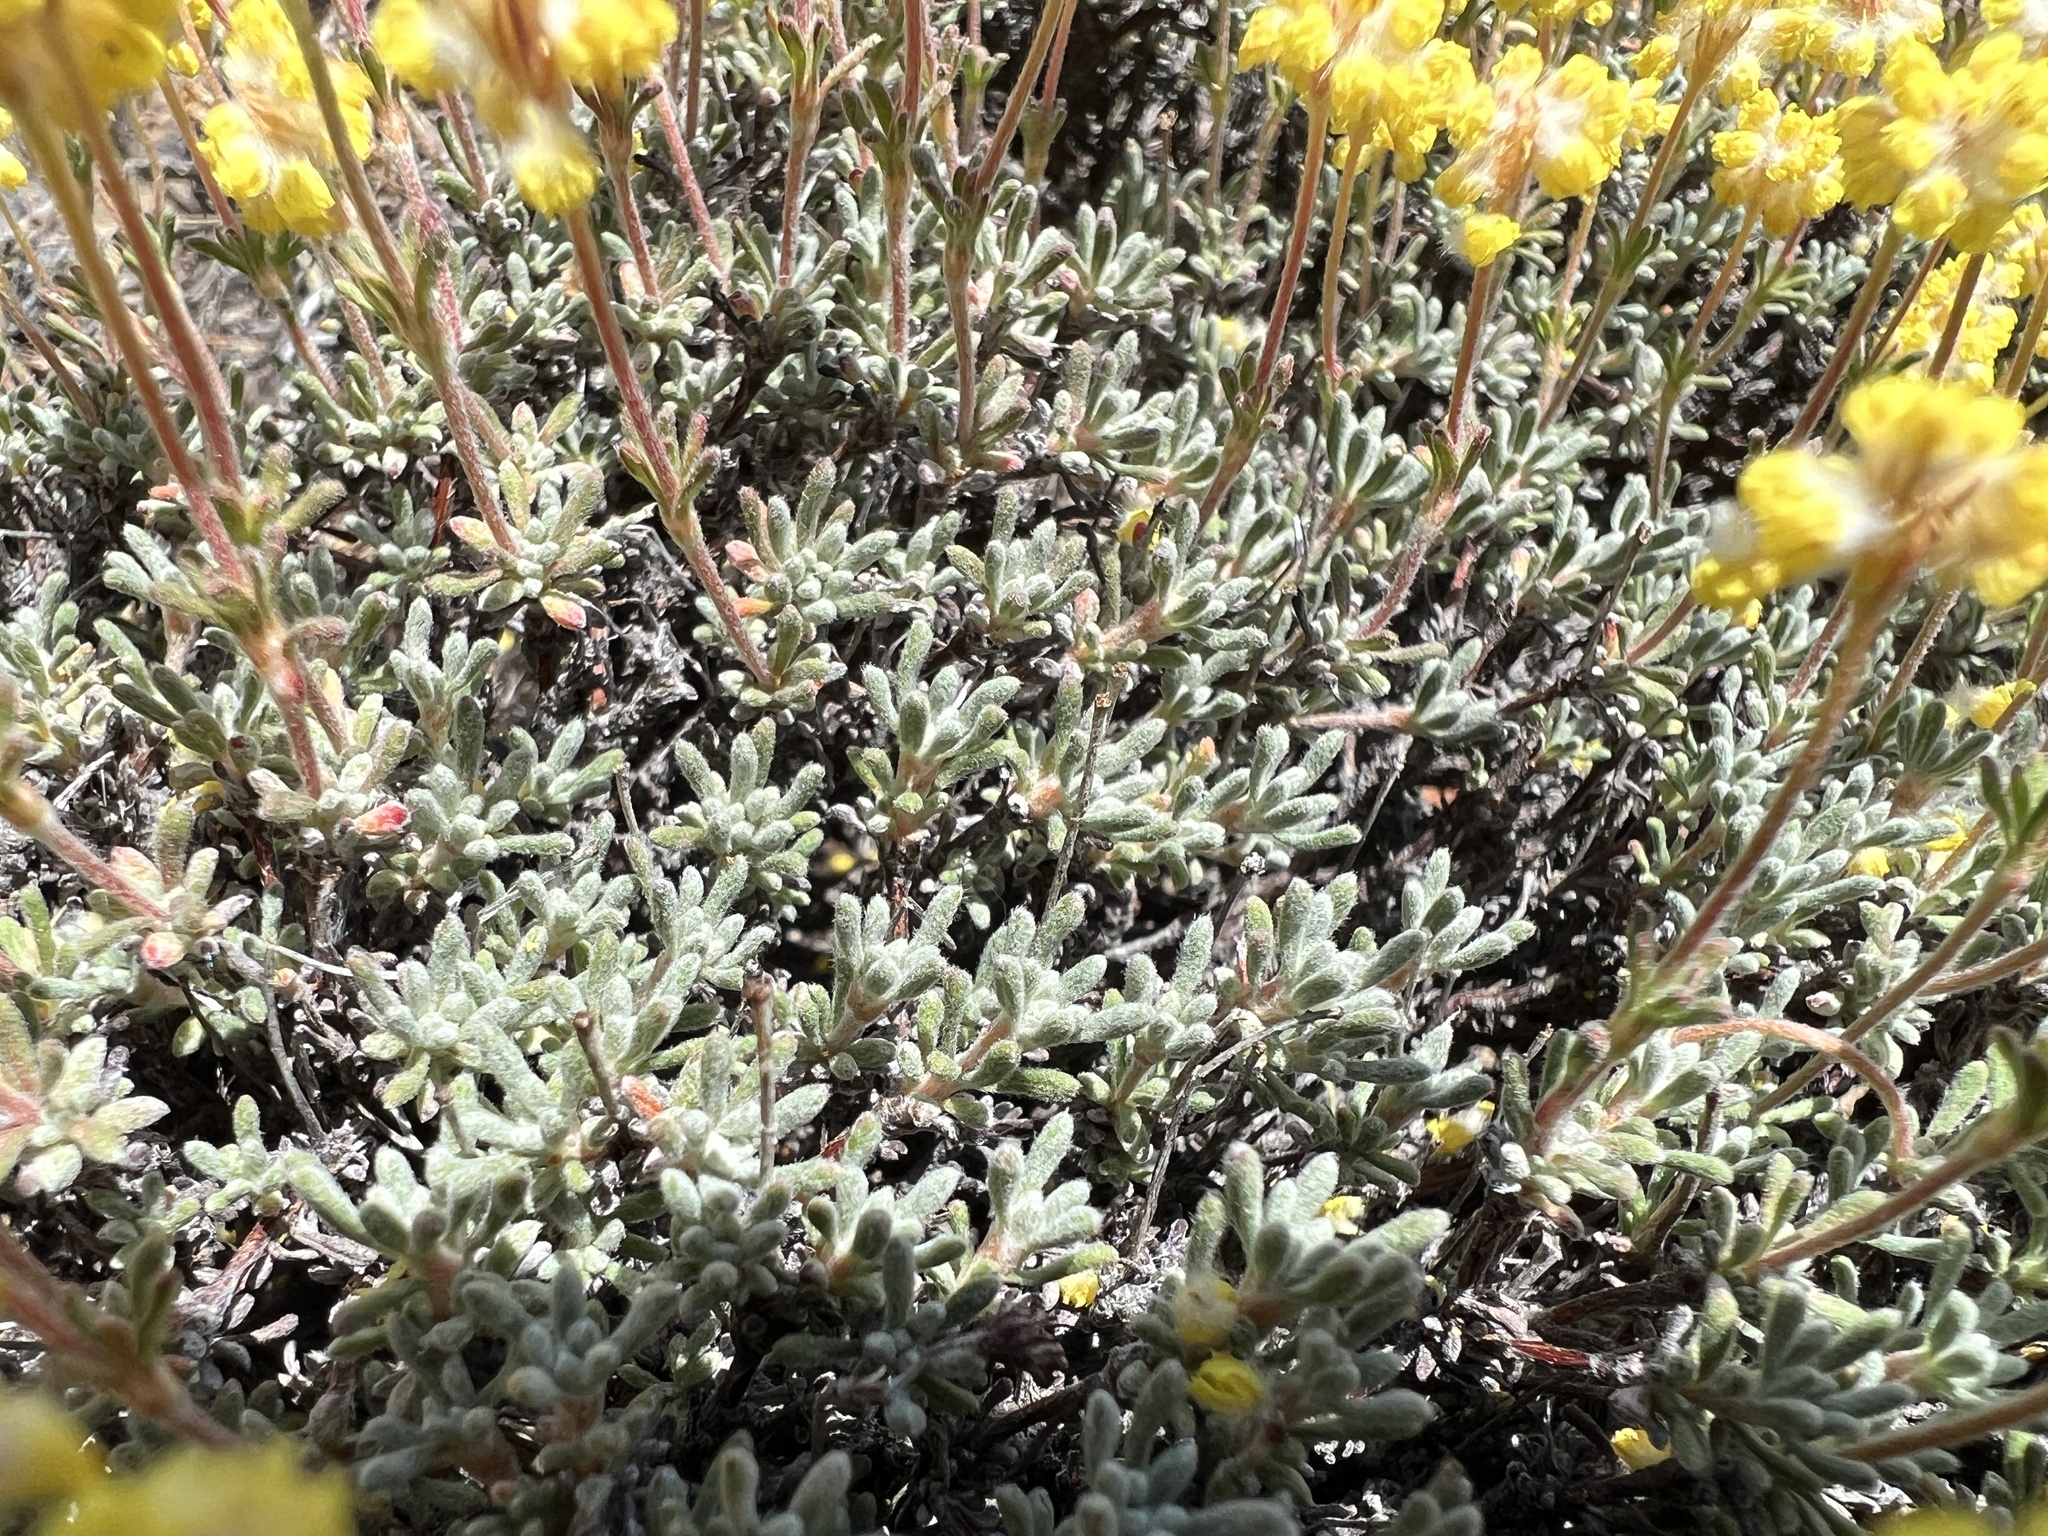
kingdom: Plantae
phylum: Tracheophyta
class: Magnoliopsida
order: Caryophyllales
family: Polygonaceae
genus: Eriogonum
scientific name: Eriogonum thymoides
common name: Thyme-leaf wild buckwheat
